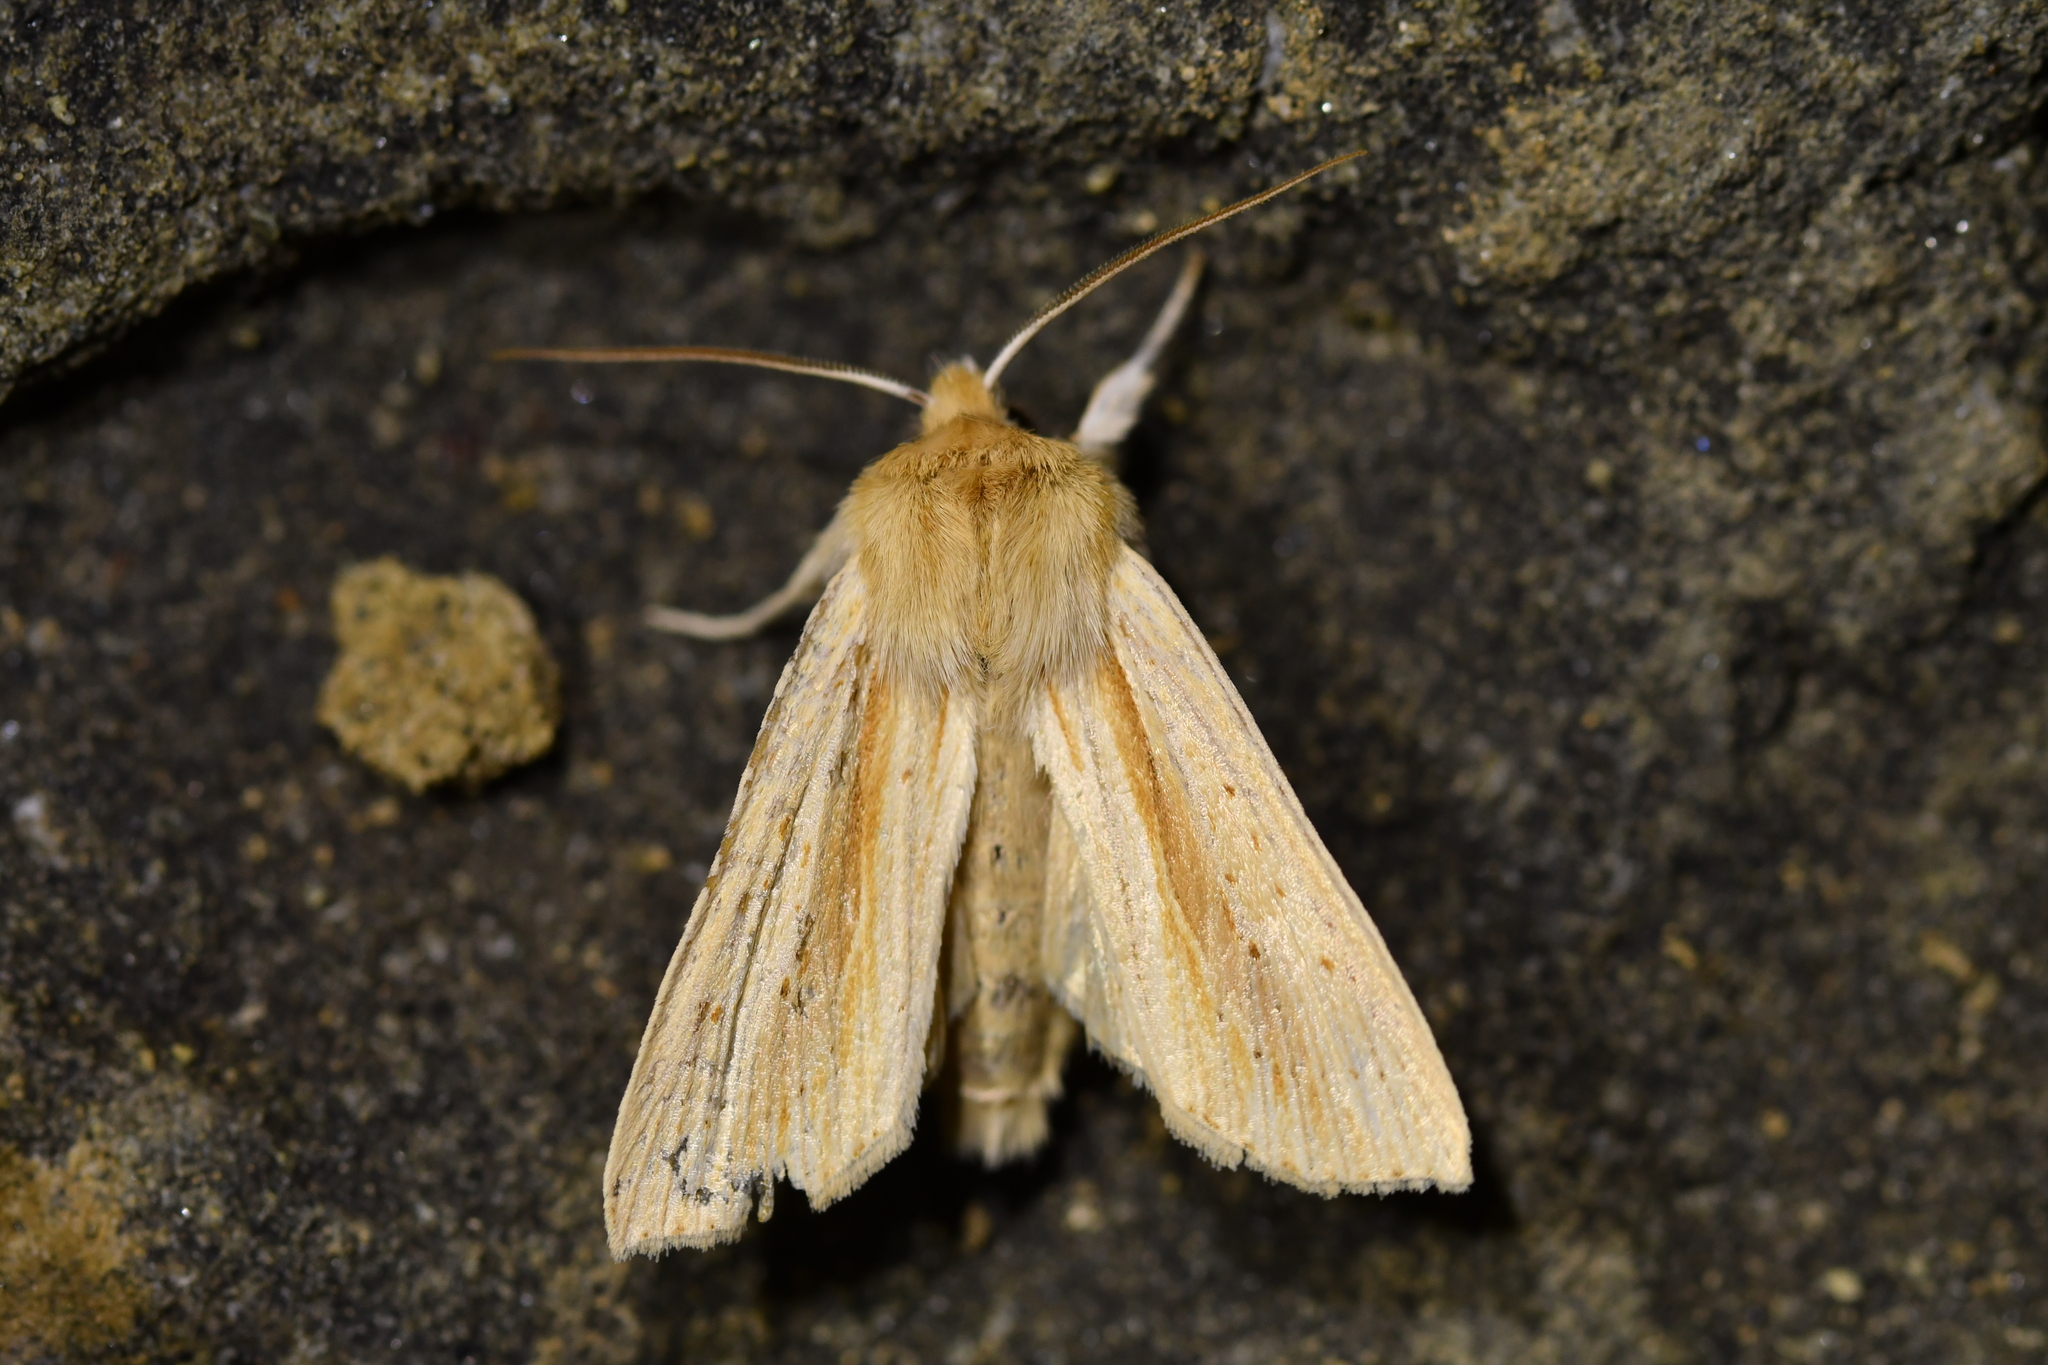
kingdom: Animalia
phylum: Arthropoda
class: Insecta
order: Lepidoptera
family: Noctuidae
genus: Ichneutica
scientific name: Ichneutica semivittata
